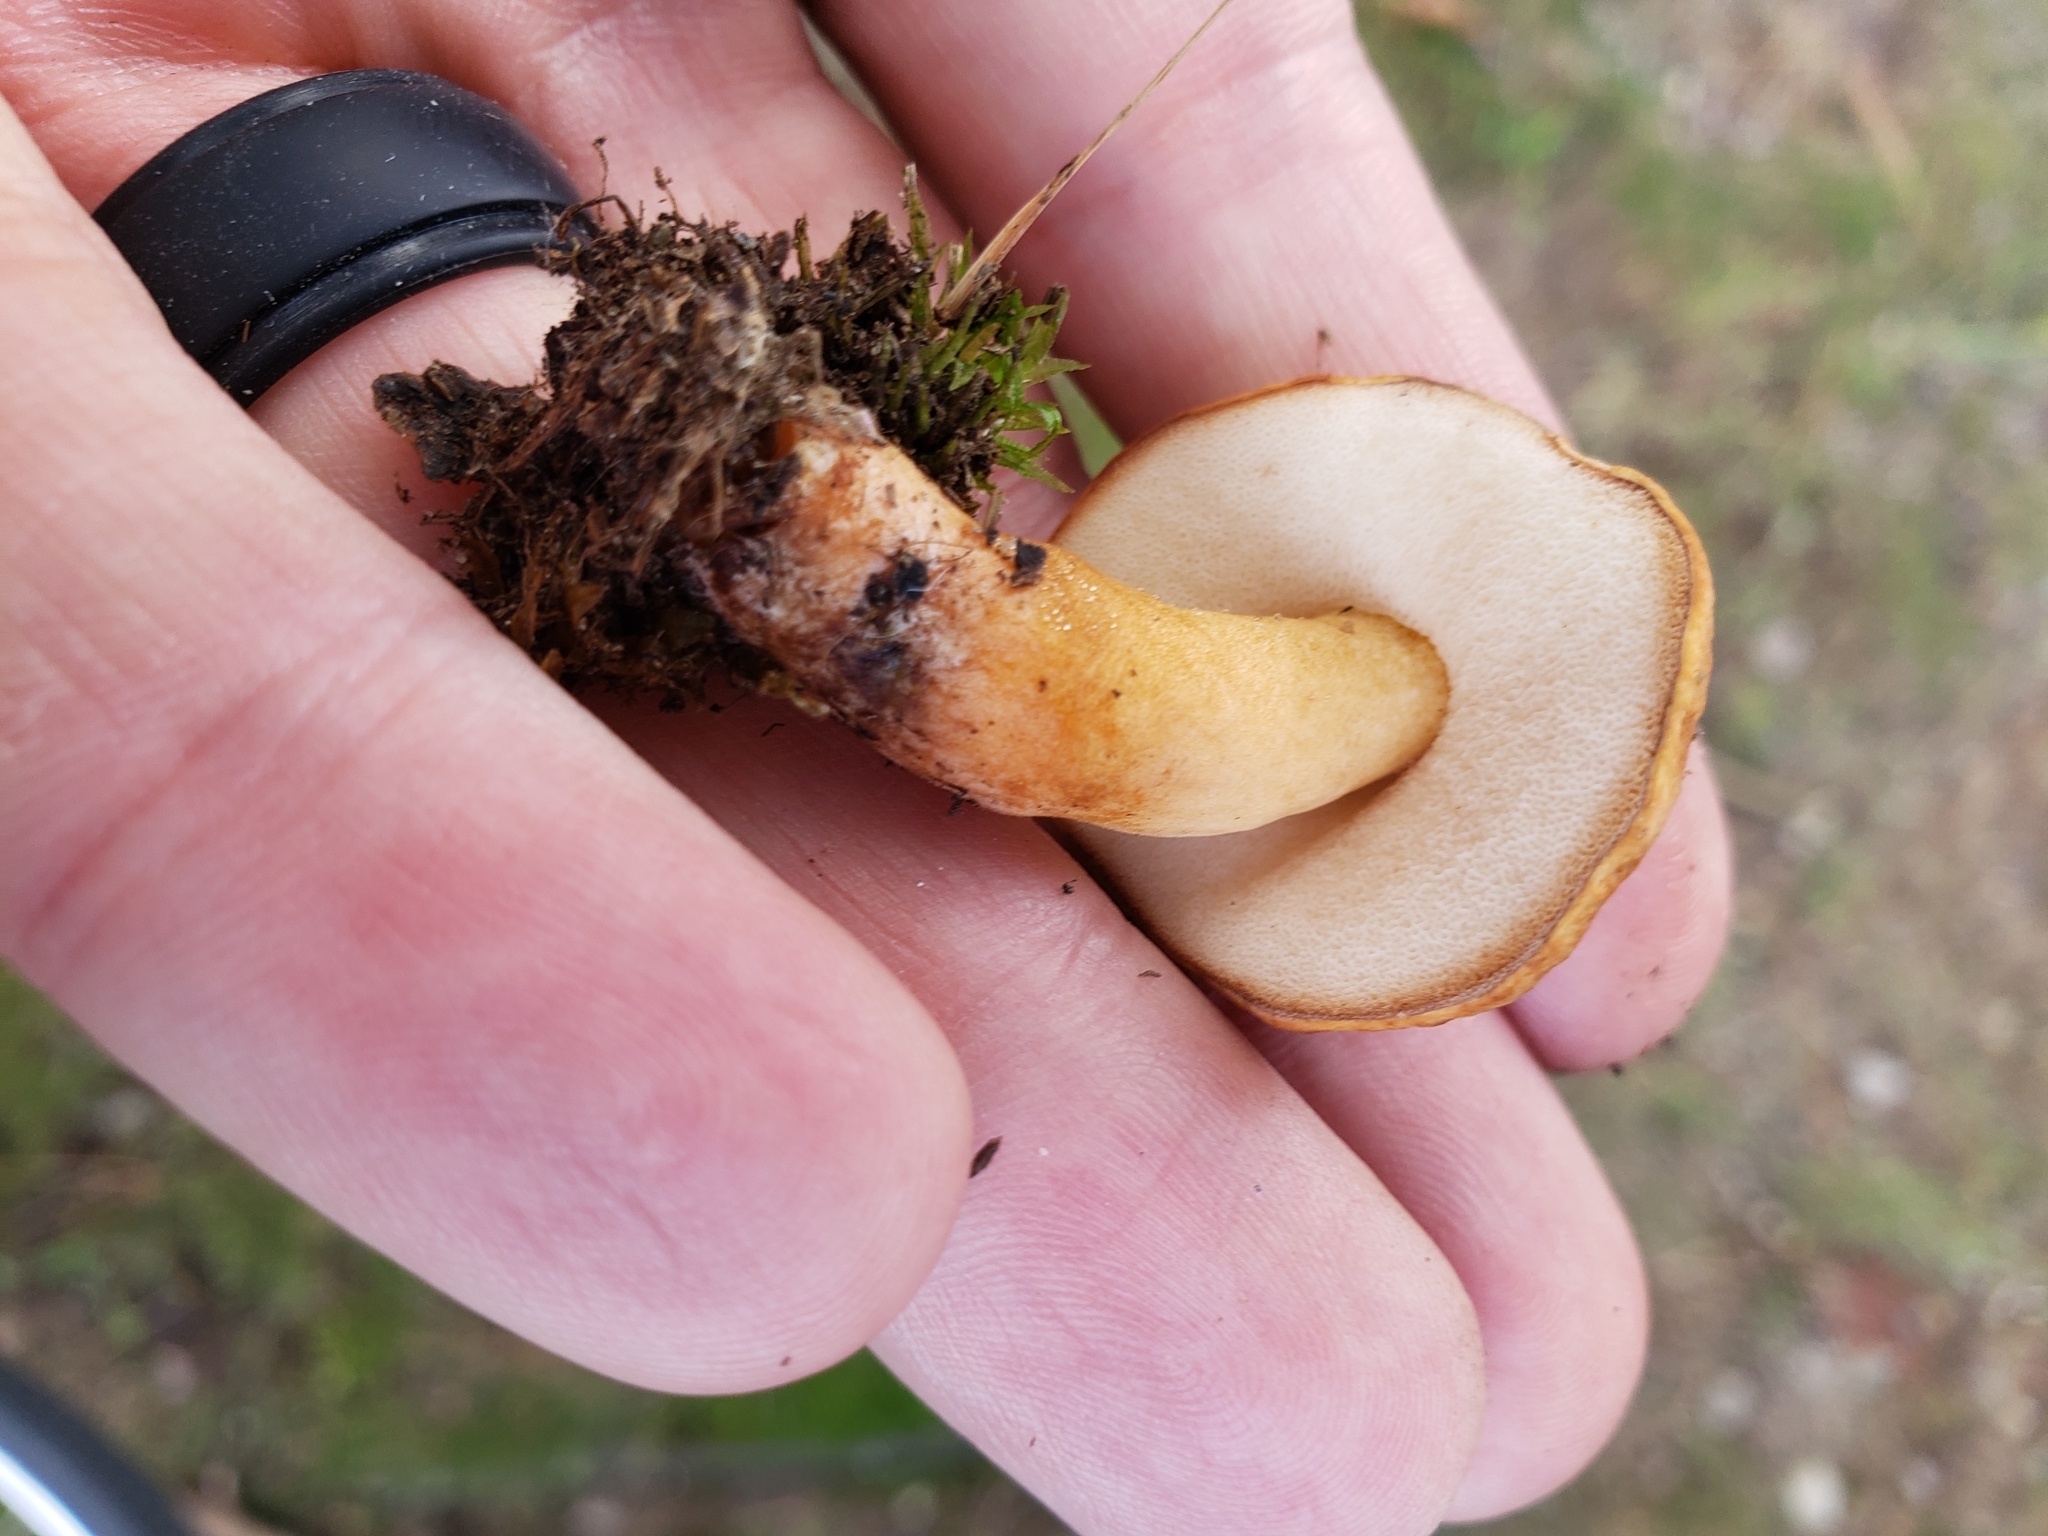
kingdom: Fungi
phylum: Basidiomycota
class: Agaricomycetes
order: Boletales
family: Gyroporaceae
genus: Gyroporus
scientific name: Gyroporus borealis
